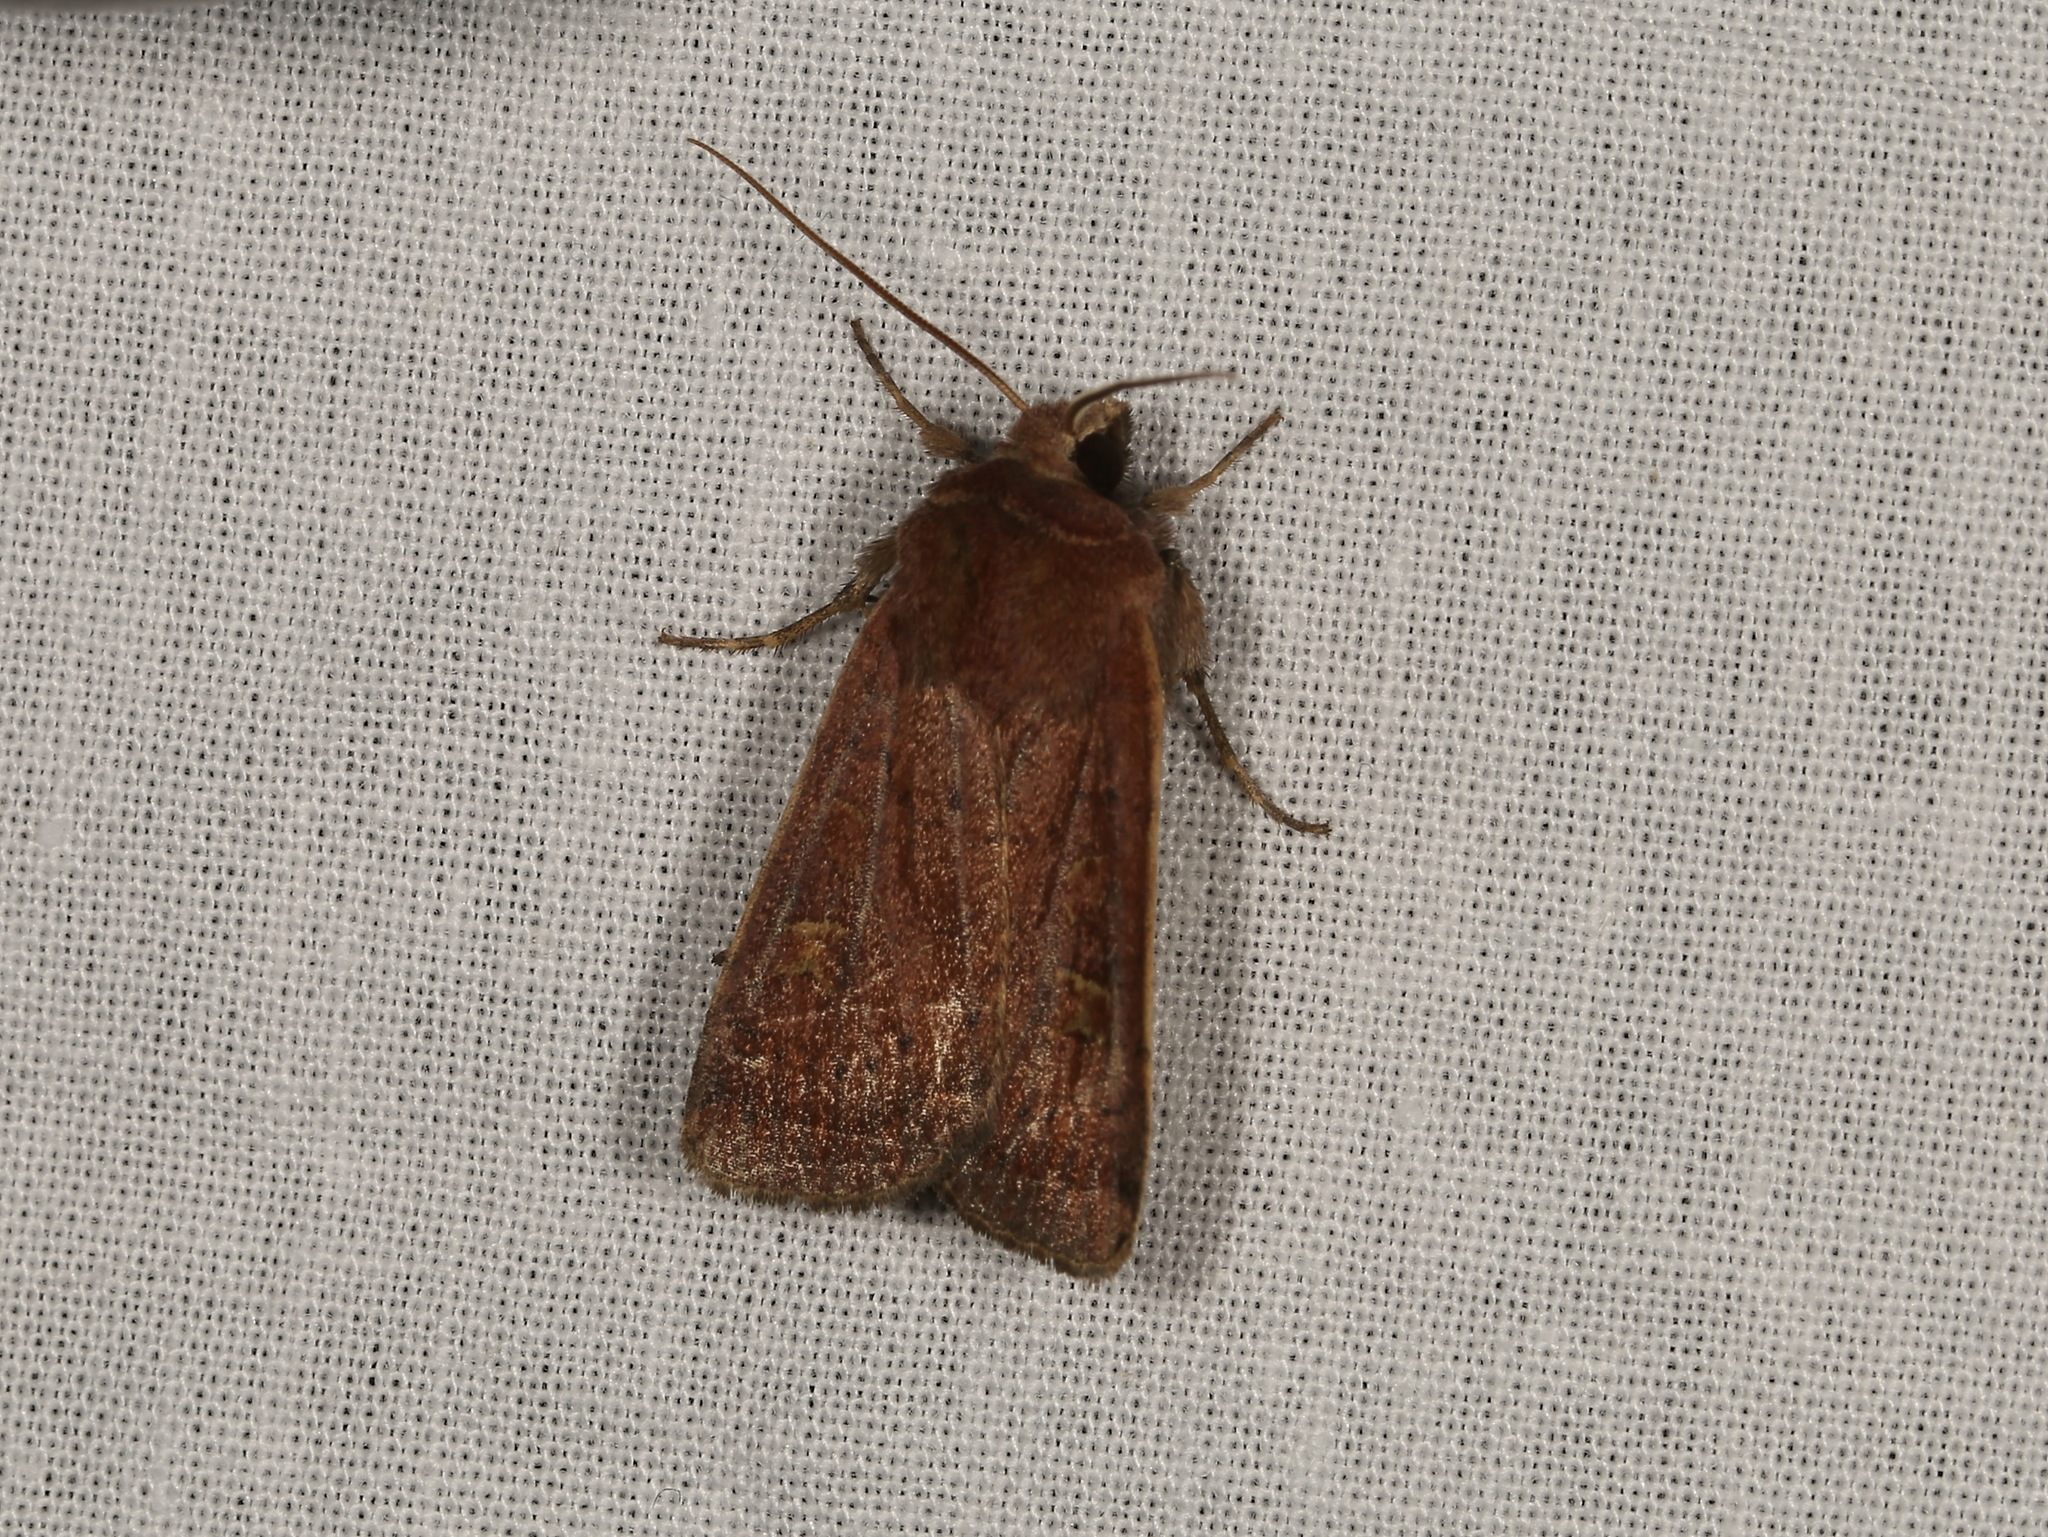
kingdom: Animalia
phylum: Arthropoda
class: Insecta
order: Lepidoptera
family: Noctuidae
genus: Xestia
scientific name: Xestia xanthographa
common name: Square-spot rustic
